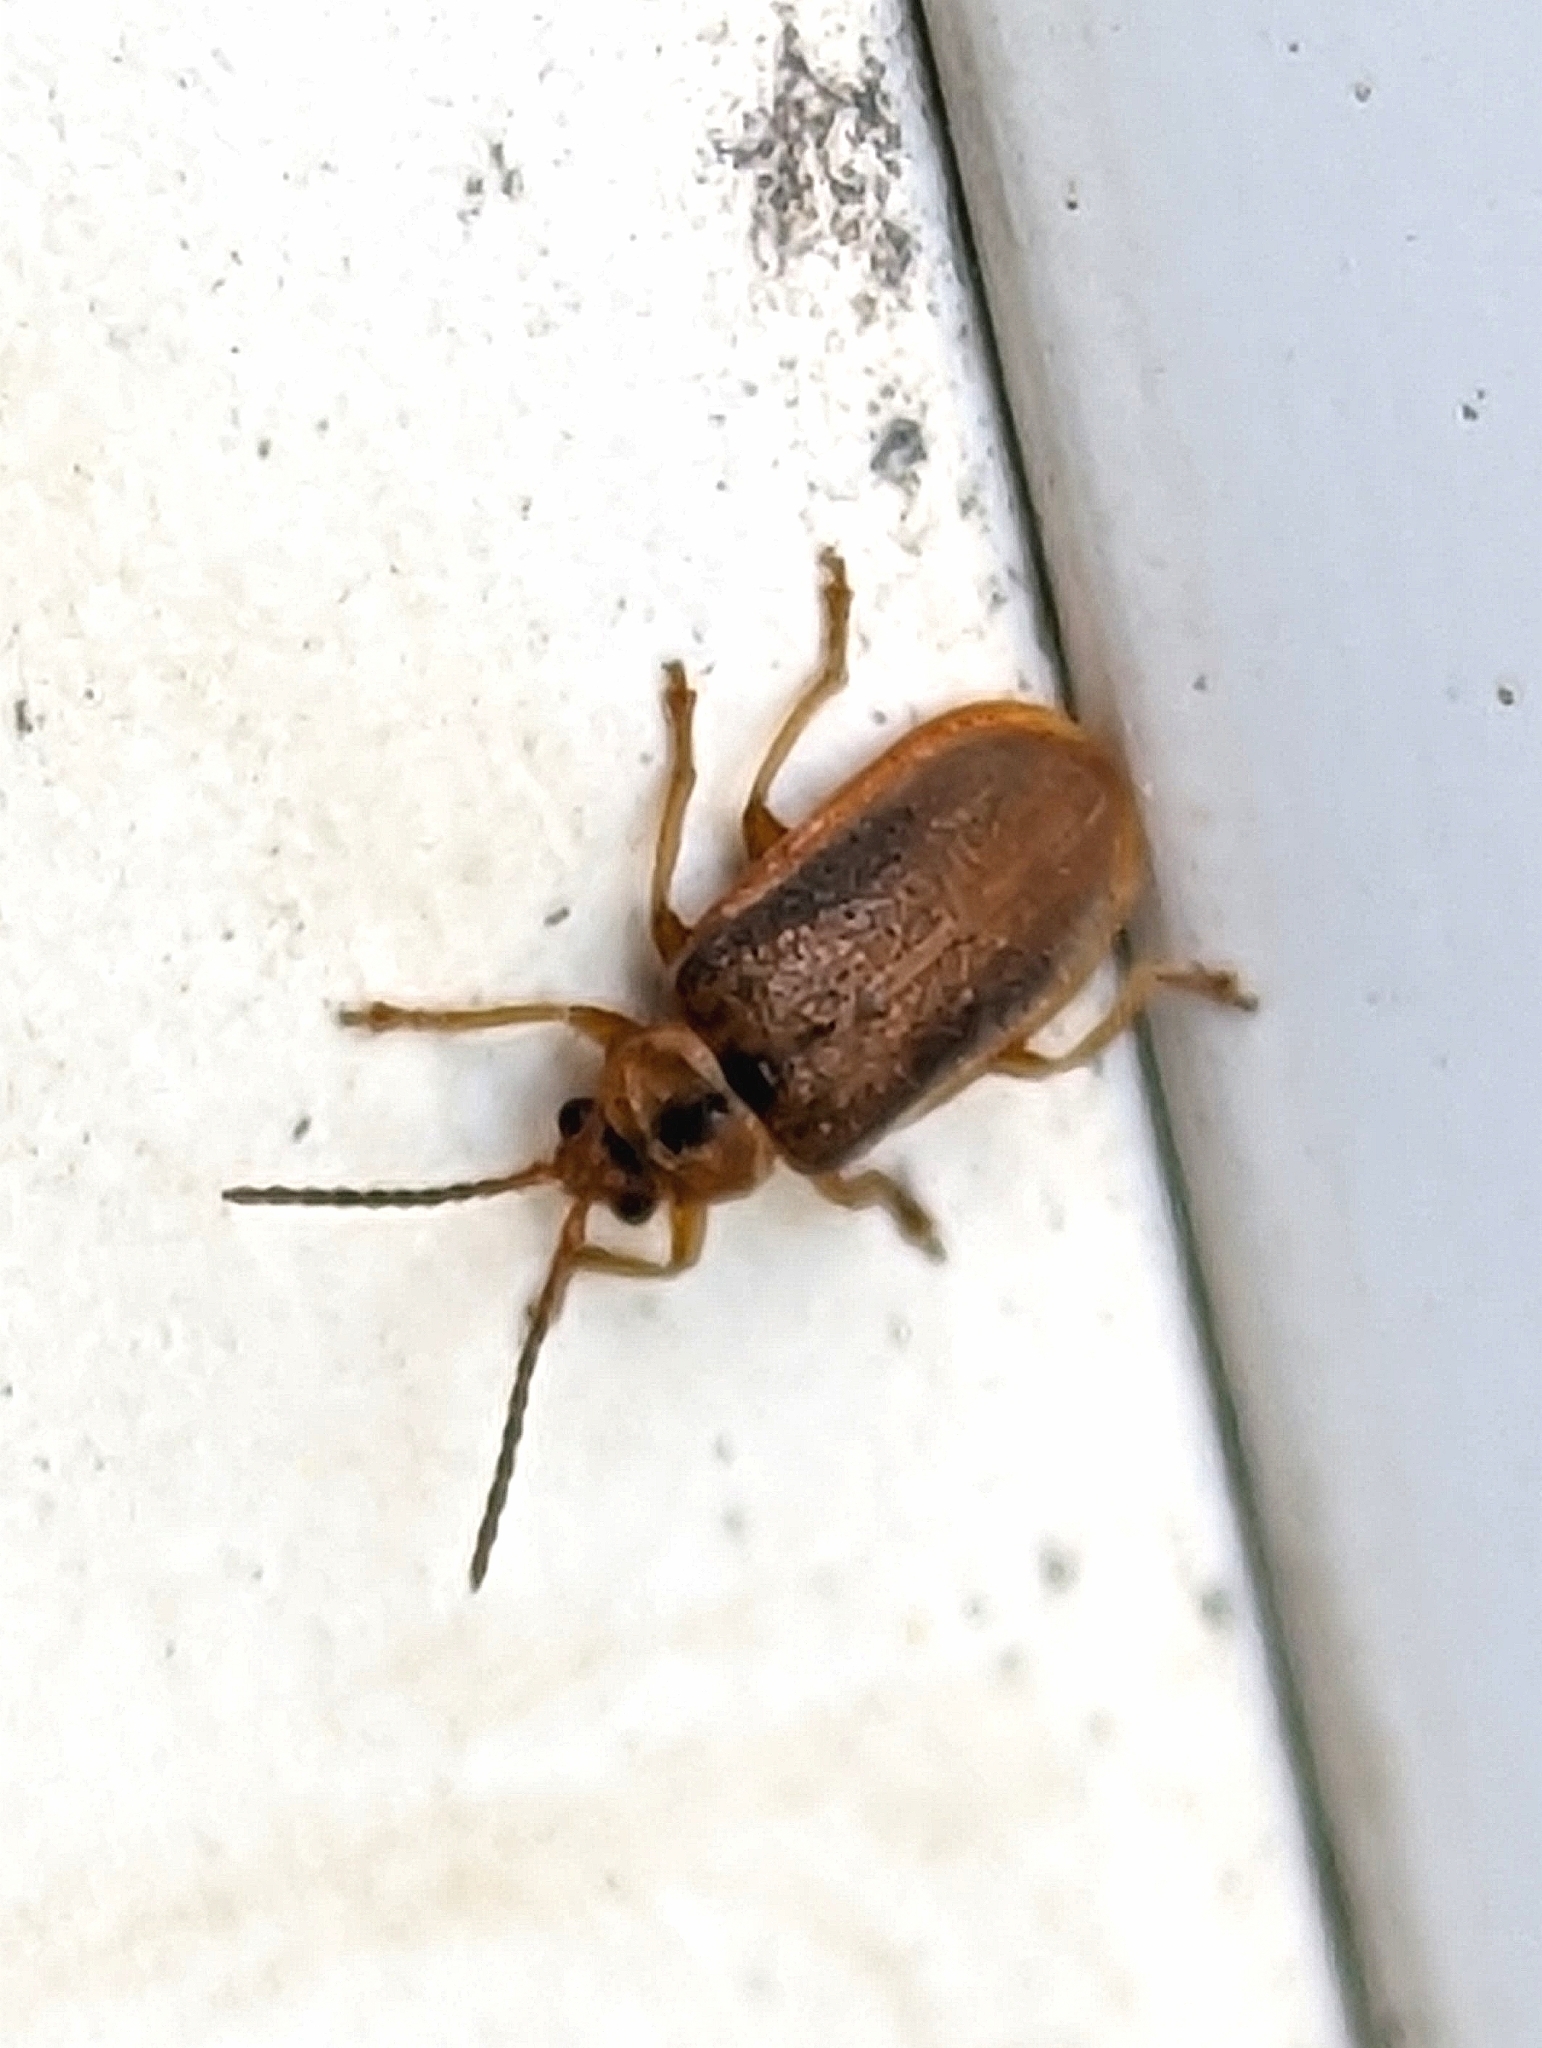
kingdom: Animalia
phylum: Arthropoda
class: Insecta
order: Coleoptera
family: Chrysomelidae
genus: Neogalerucella
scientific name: Neogalerucella calmariensis
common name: Black-margined loosestrife beetle
